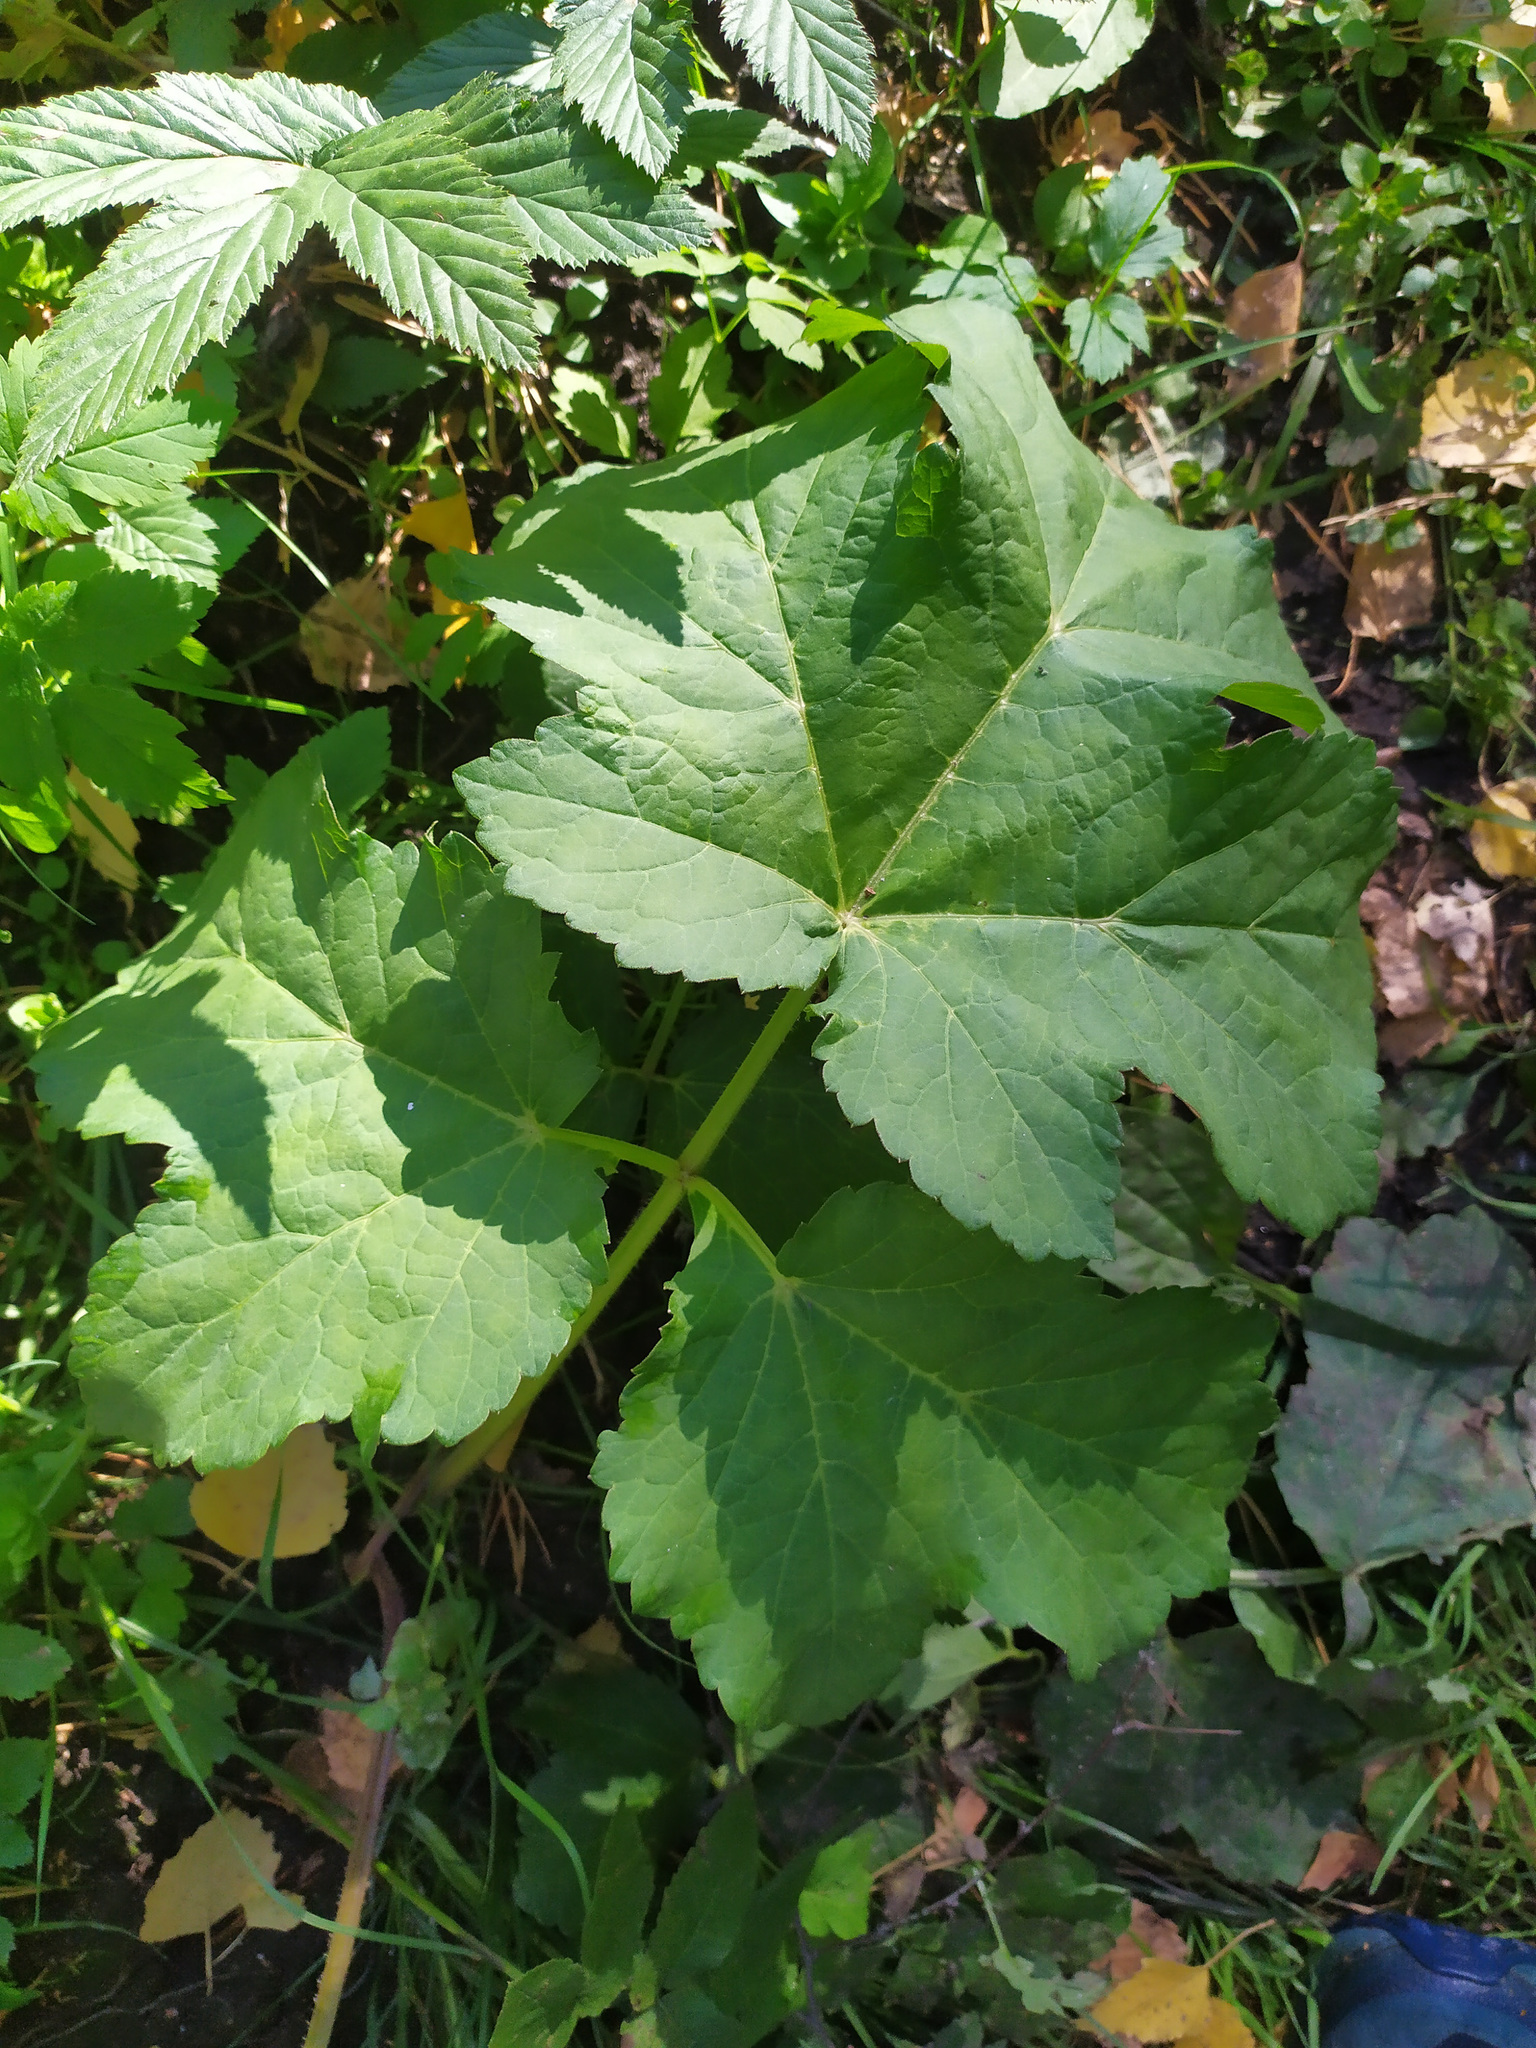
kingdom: Plantae
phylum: Tracheophyta
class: Magnoliopsida
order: Apiales
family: Apiaceae
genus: Heracleum
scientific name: Heracleum sphondylium
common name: Hogweed
